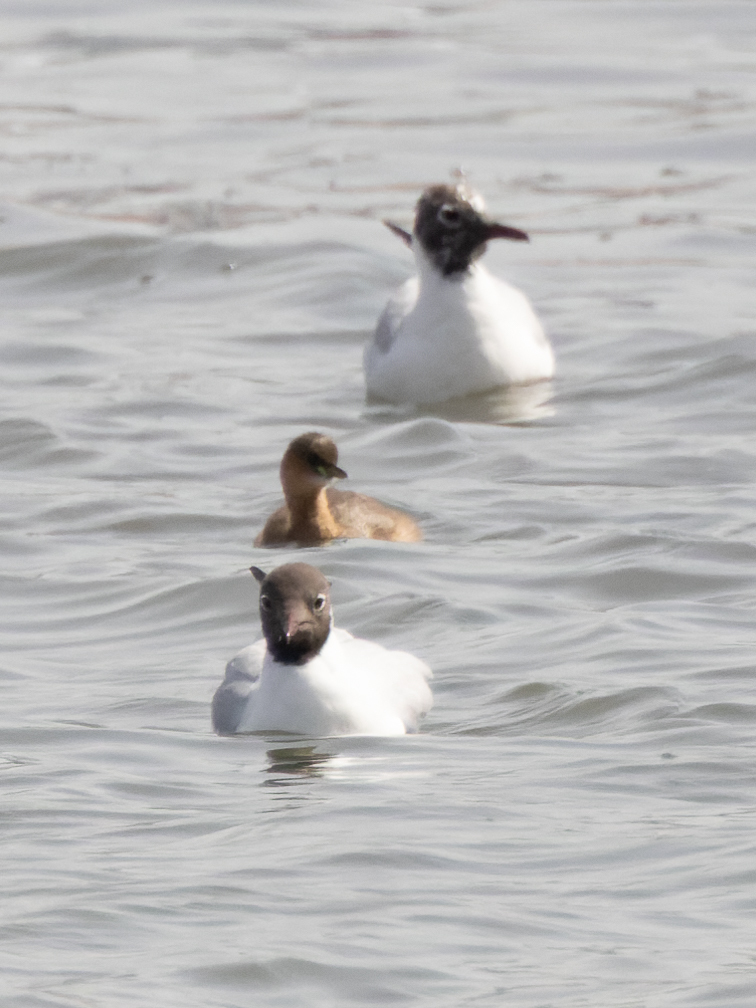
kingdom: Animalia
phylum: Chordata
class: Aves
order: Podicipediformes
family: Podicipedidae
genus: Tachybaptus
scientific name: Tachybaptus ruficollis
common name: Little grebe
